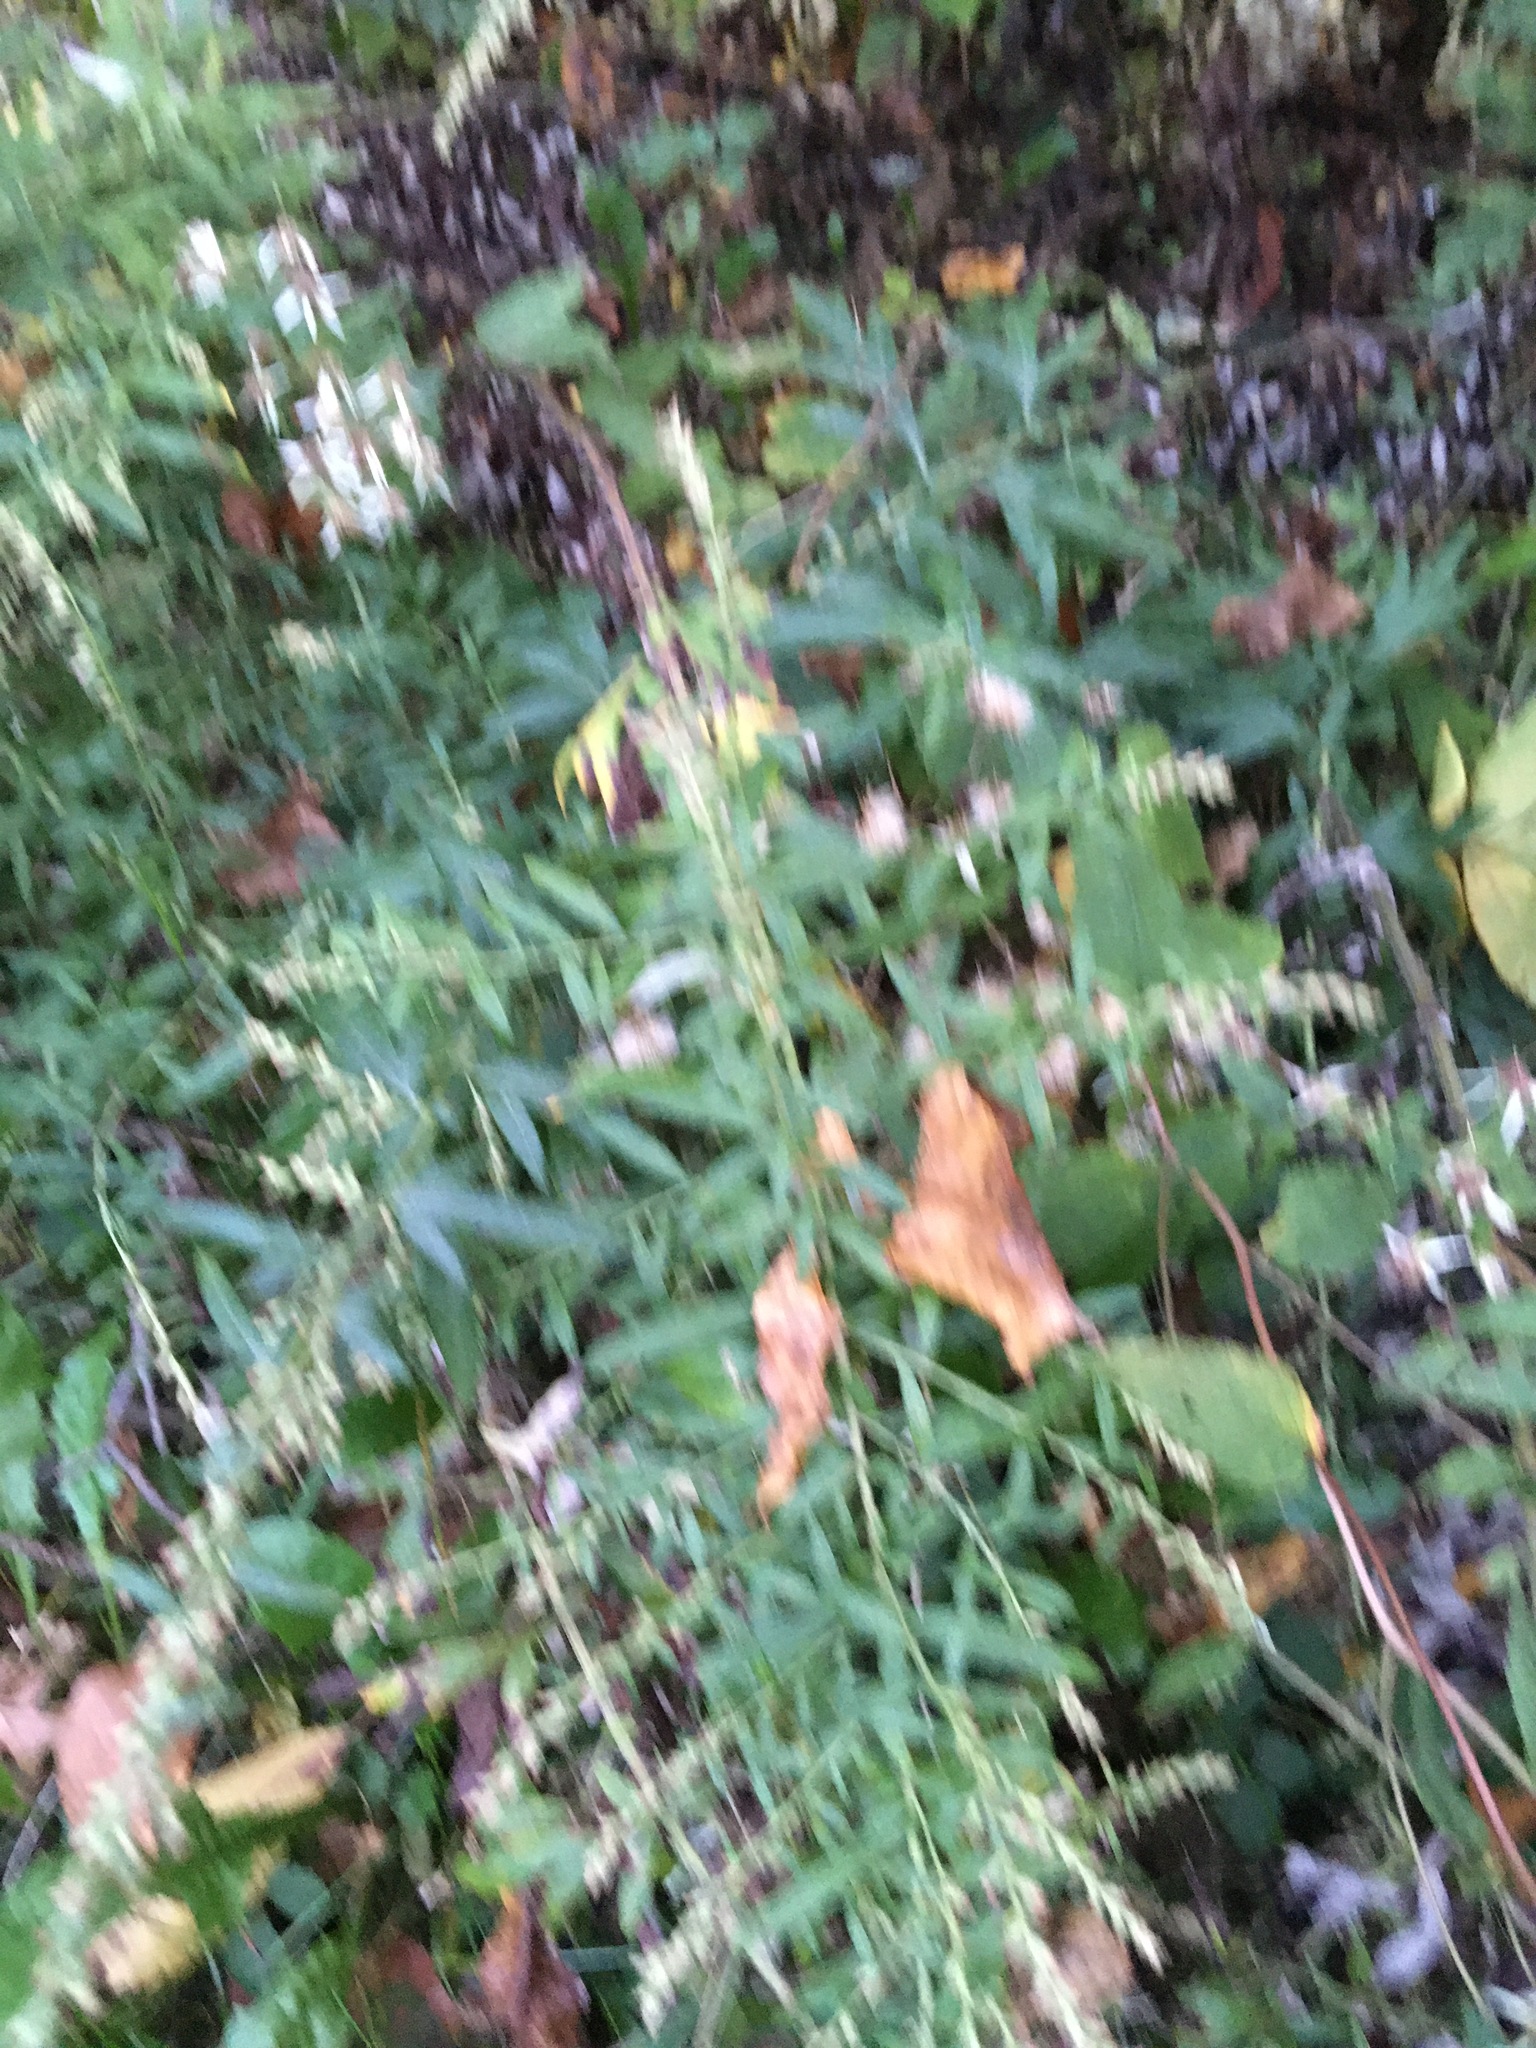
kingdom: Plantae
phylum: Tracheophyta
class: Magnoliopsida
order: Asterales
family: Asteraceae
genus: Artemisia
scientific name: Artemisia vulgaris
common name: Mugwort
